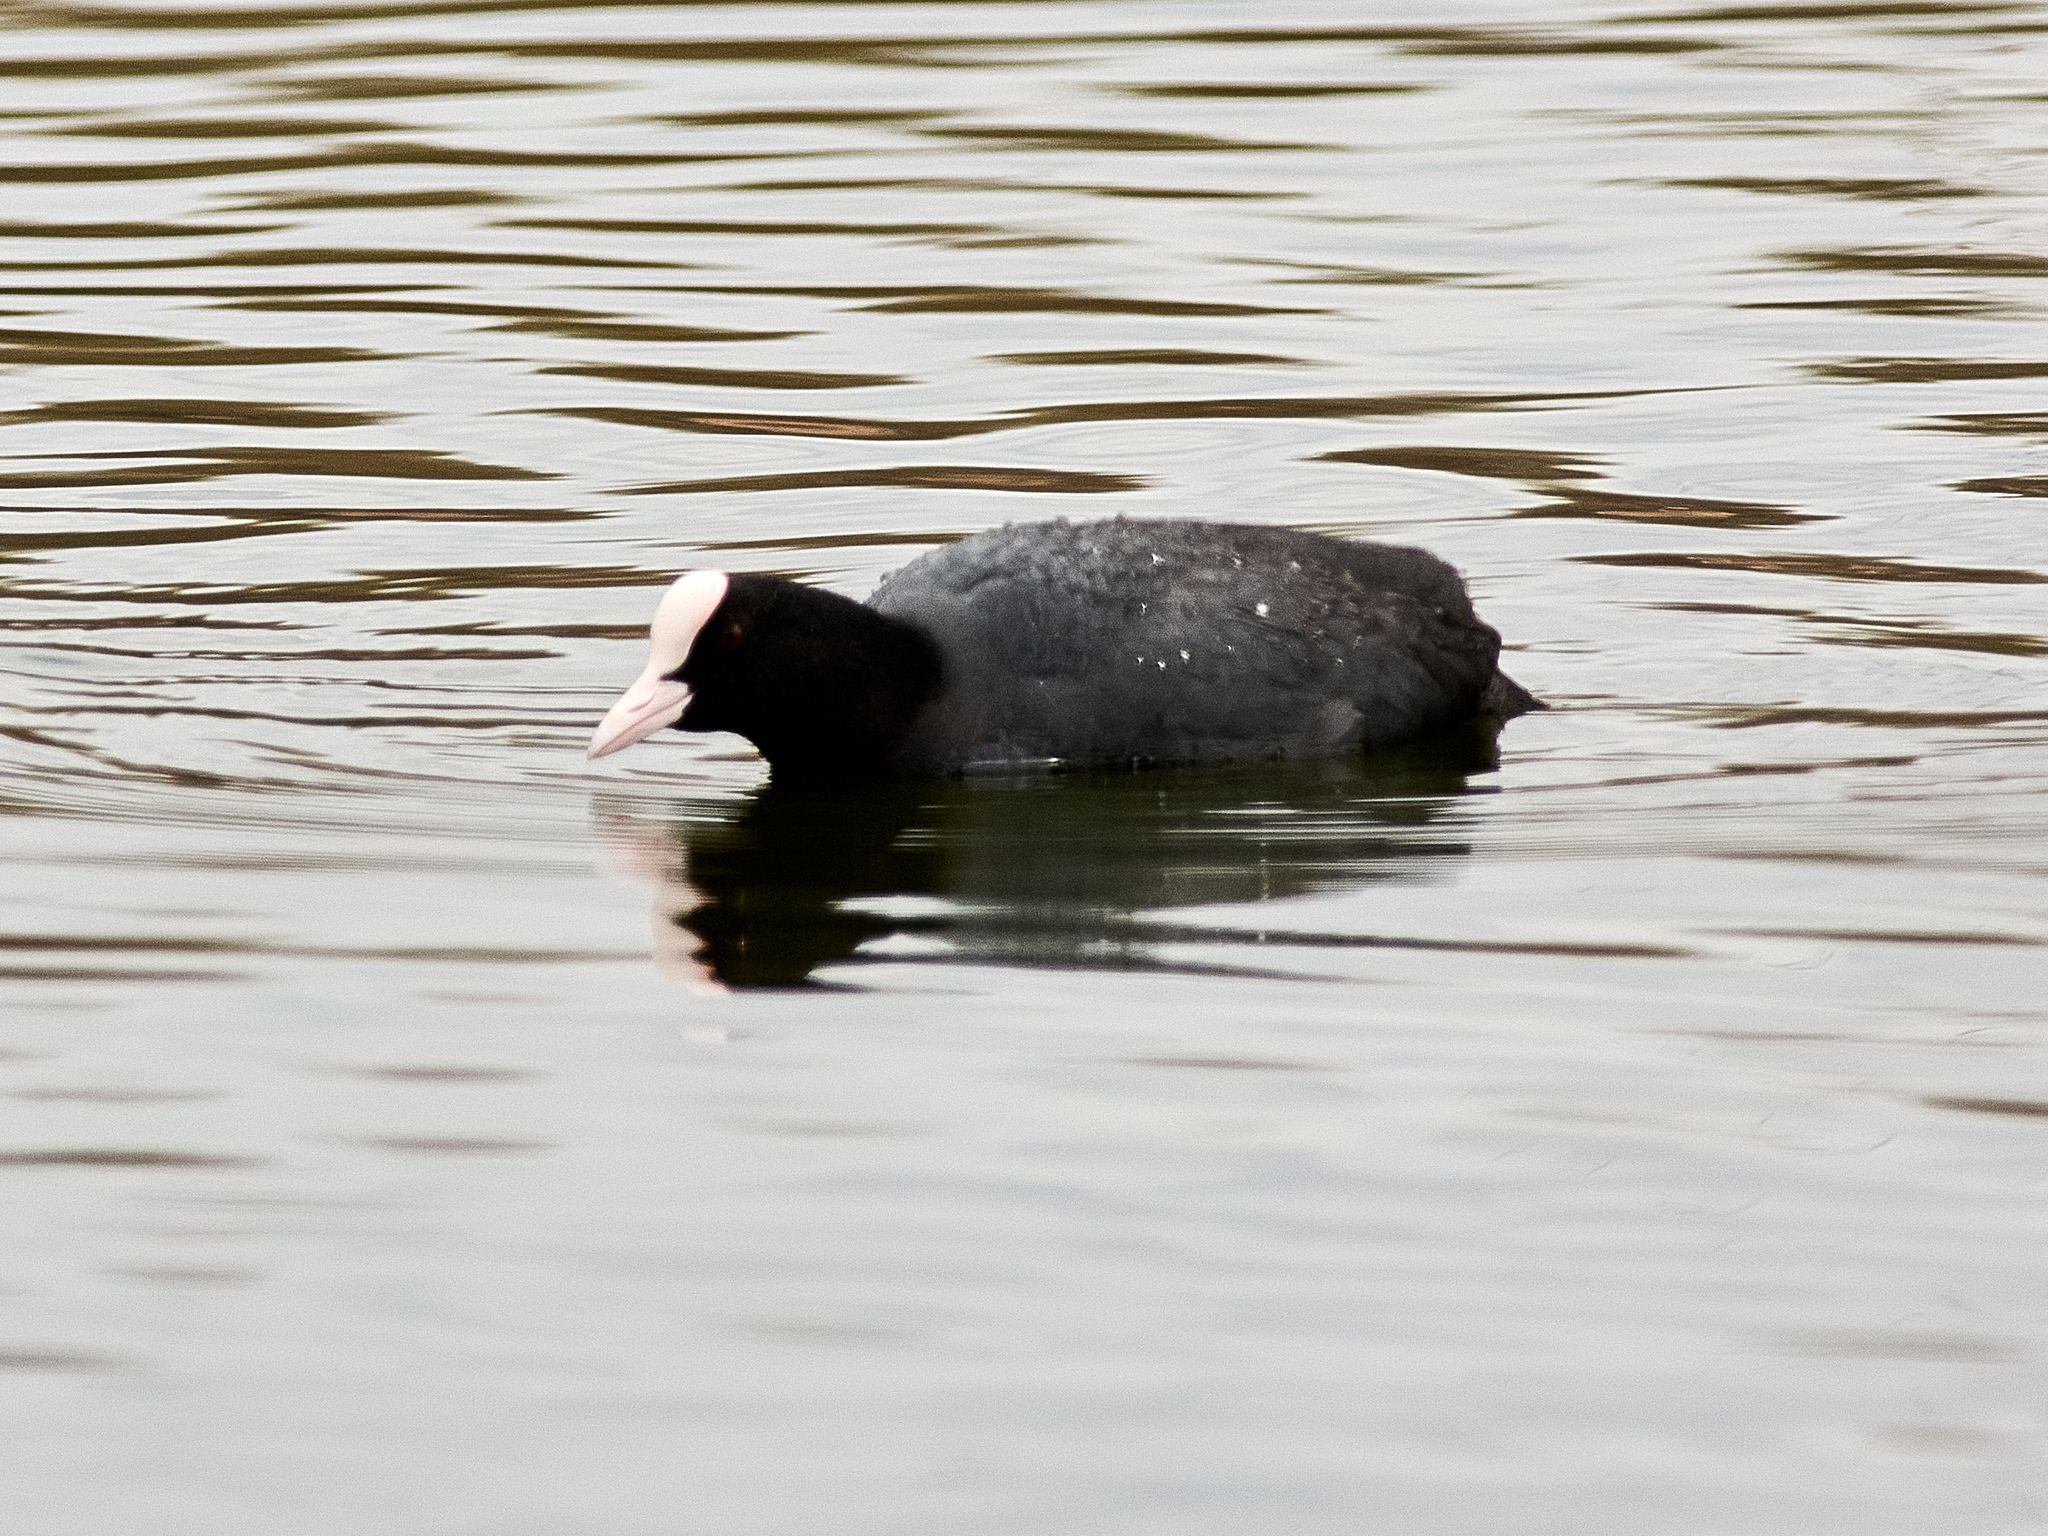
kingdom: Animalia
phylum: Chordata
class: Aves
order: Gruiformes
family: Rallidae
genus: Fulica
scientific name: Fulica atra
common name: Eurasian coot
